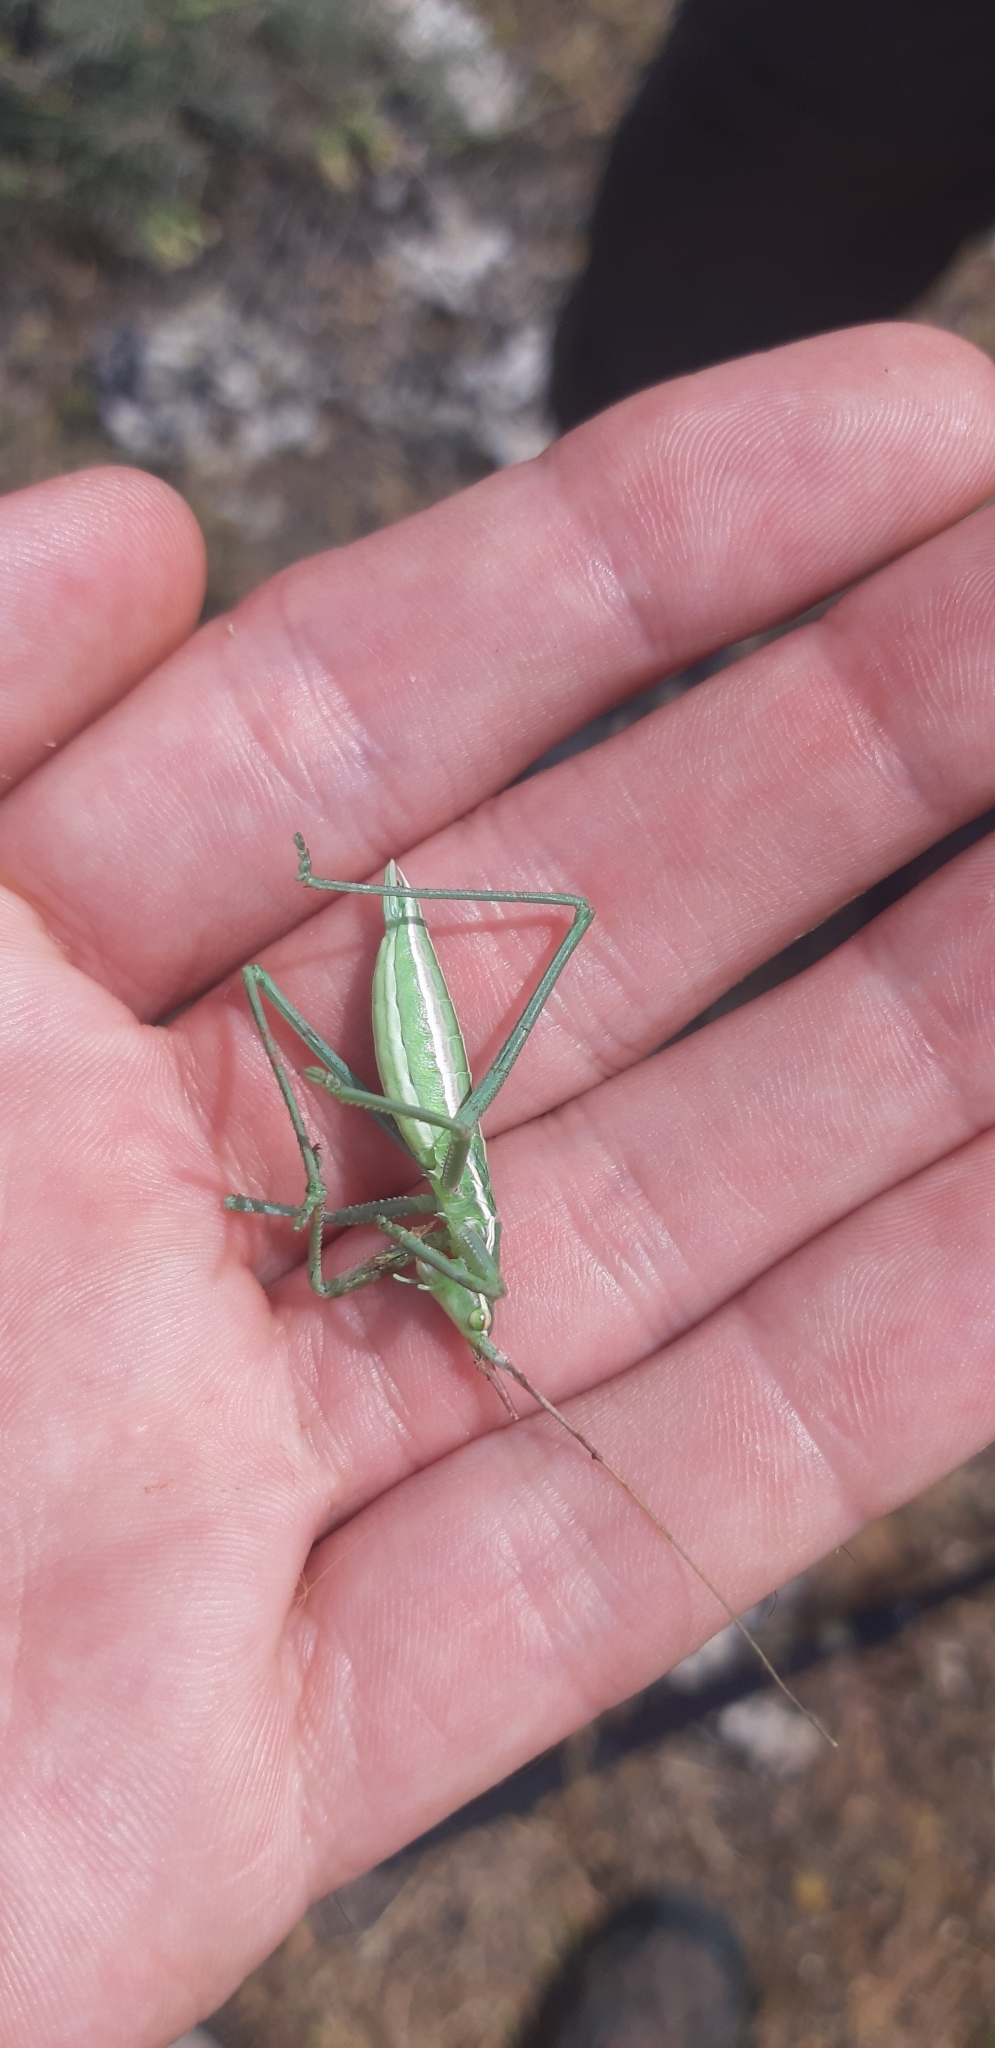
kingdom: Animalia
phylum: Arthropoda
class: Insecta
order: Orthoptera
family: Tettigoniidae
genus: Saga
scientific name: Saga pedo
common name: Common predatory bush-cricket
